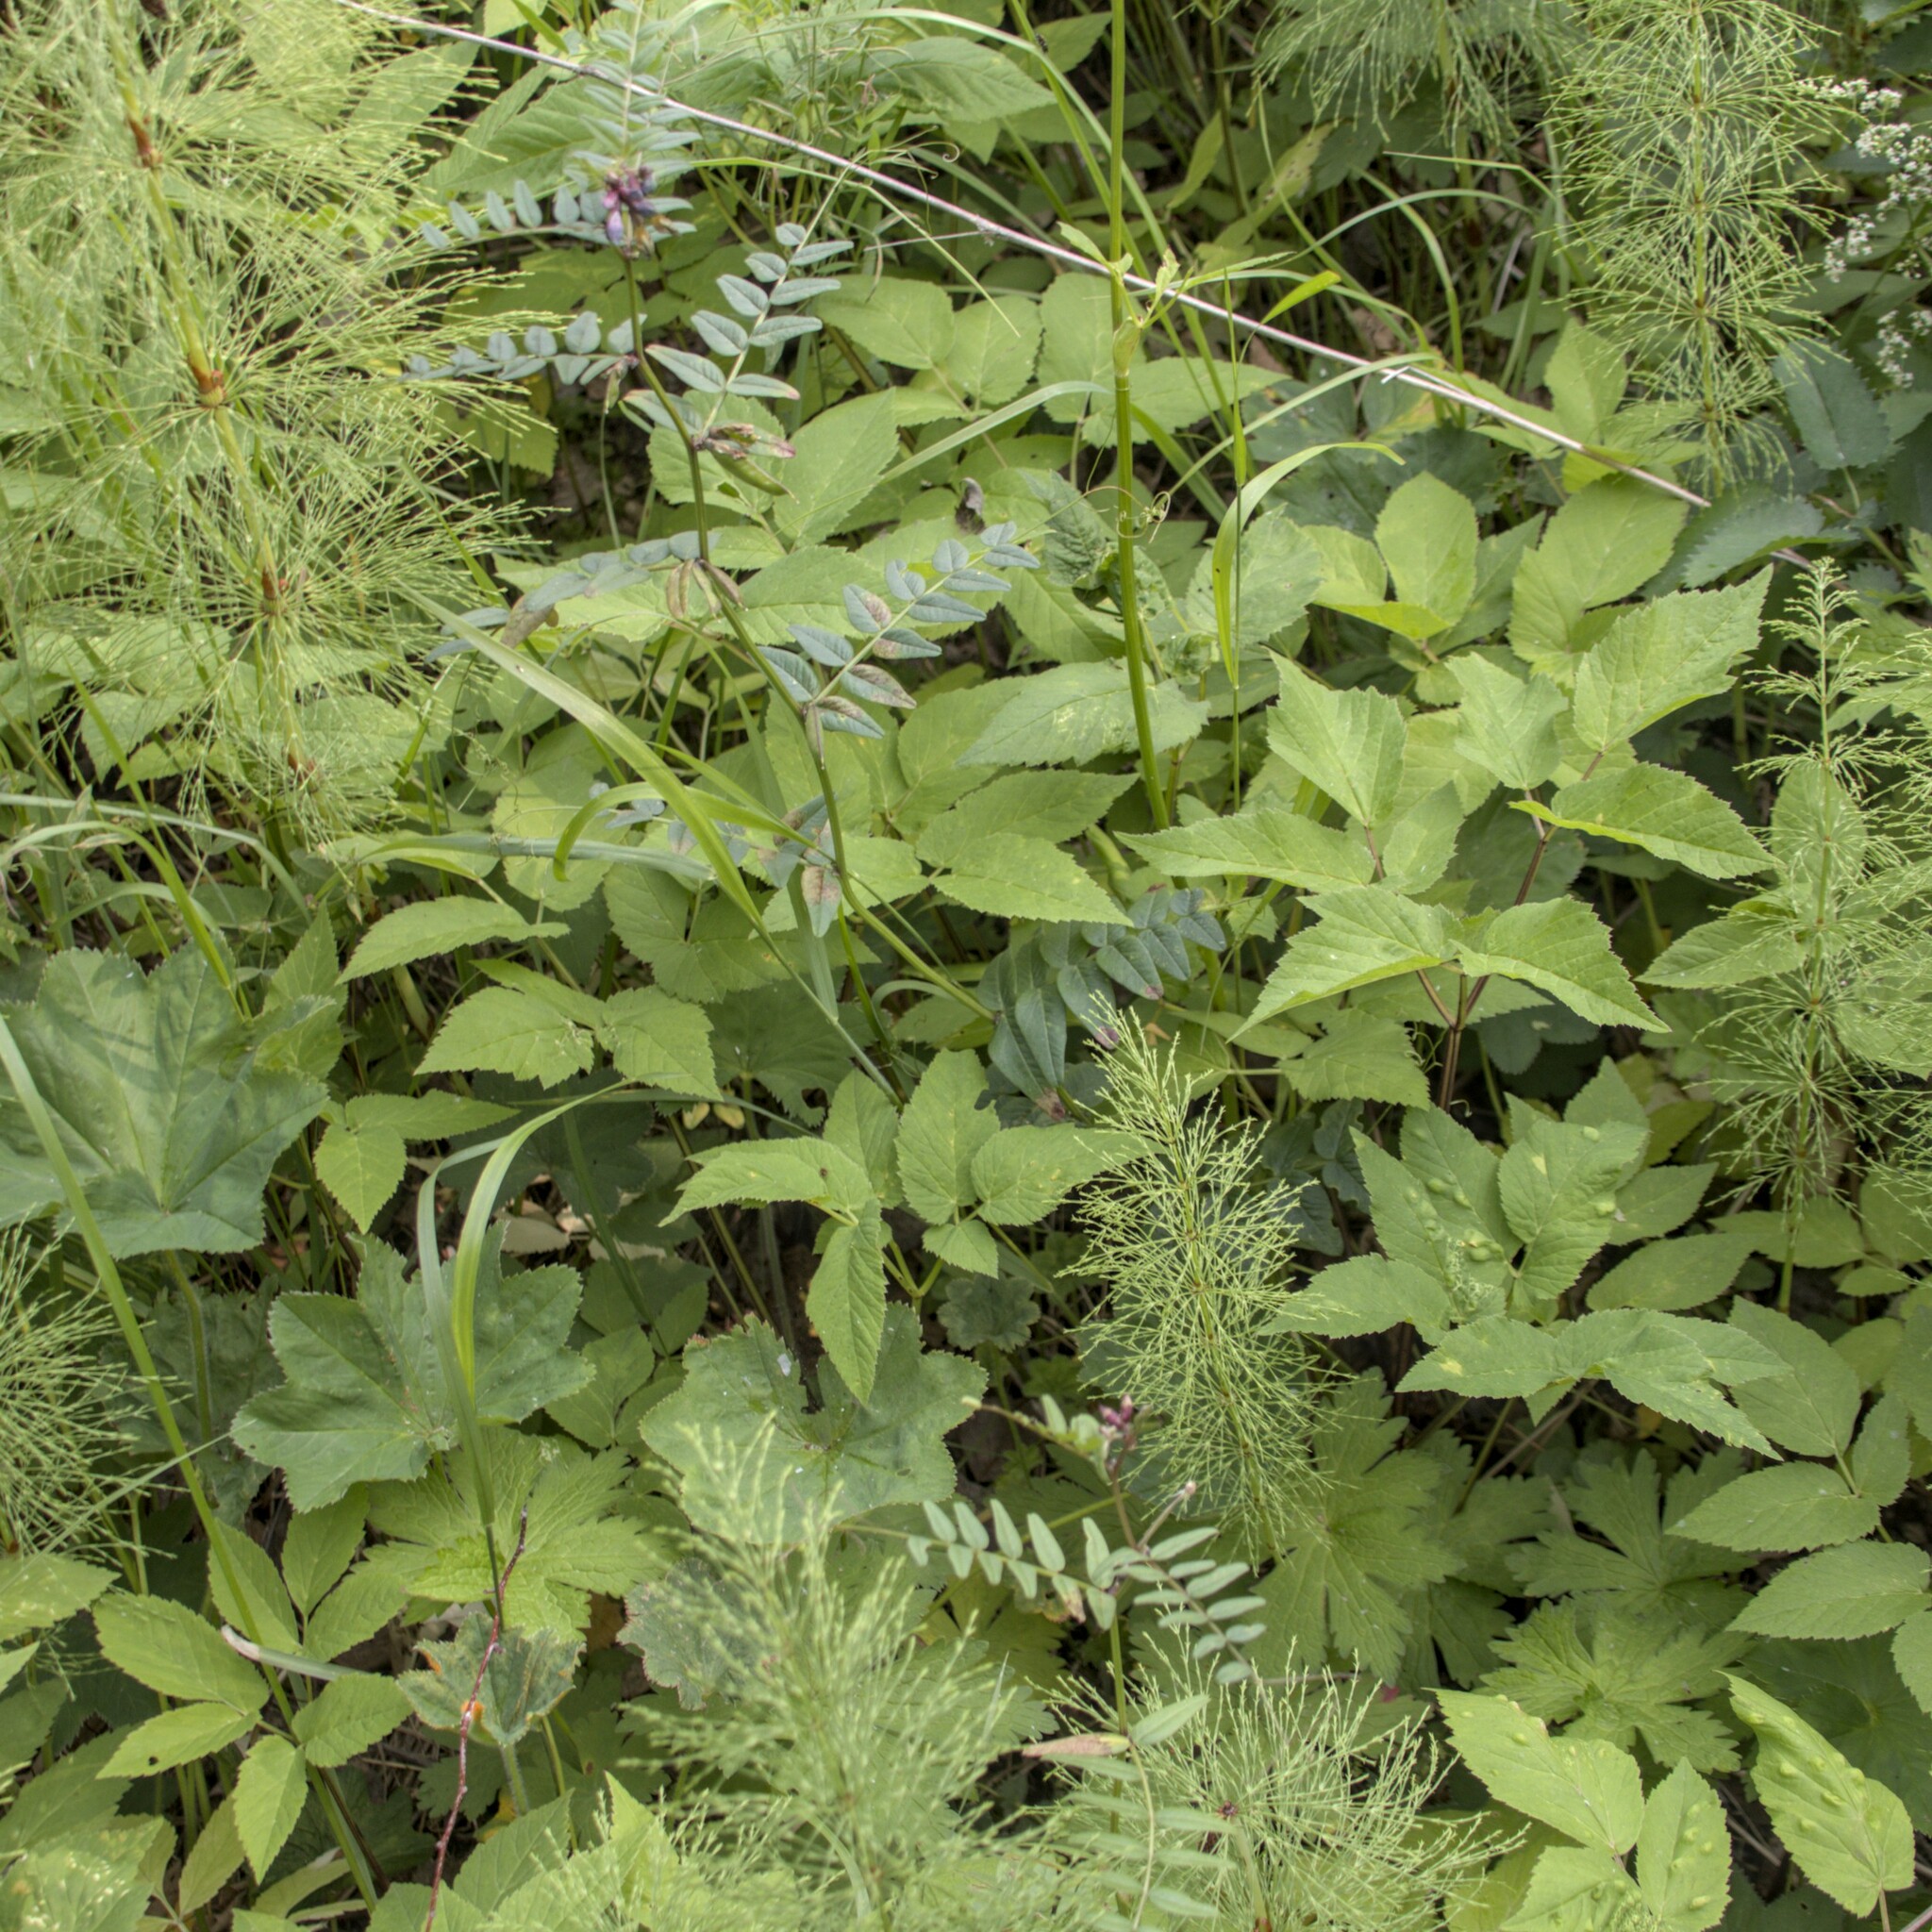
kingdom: Plantae
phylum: Tracheophyta
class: Magnoliopsida
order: Fabales
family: Fabaceae
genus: Vicia
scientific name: Vicia sepium
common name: Bush vetch
